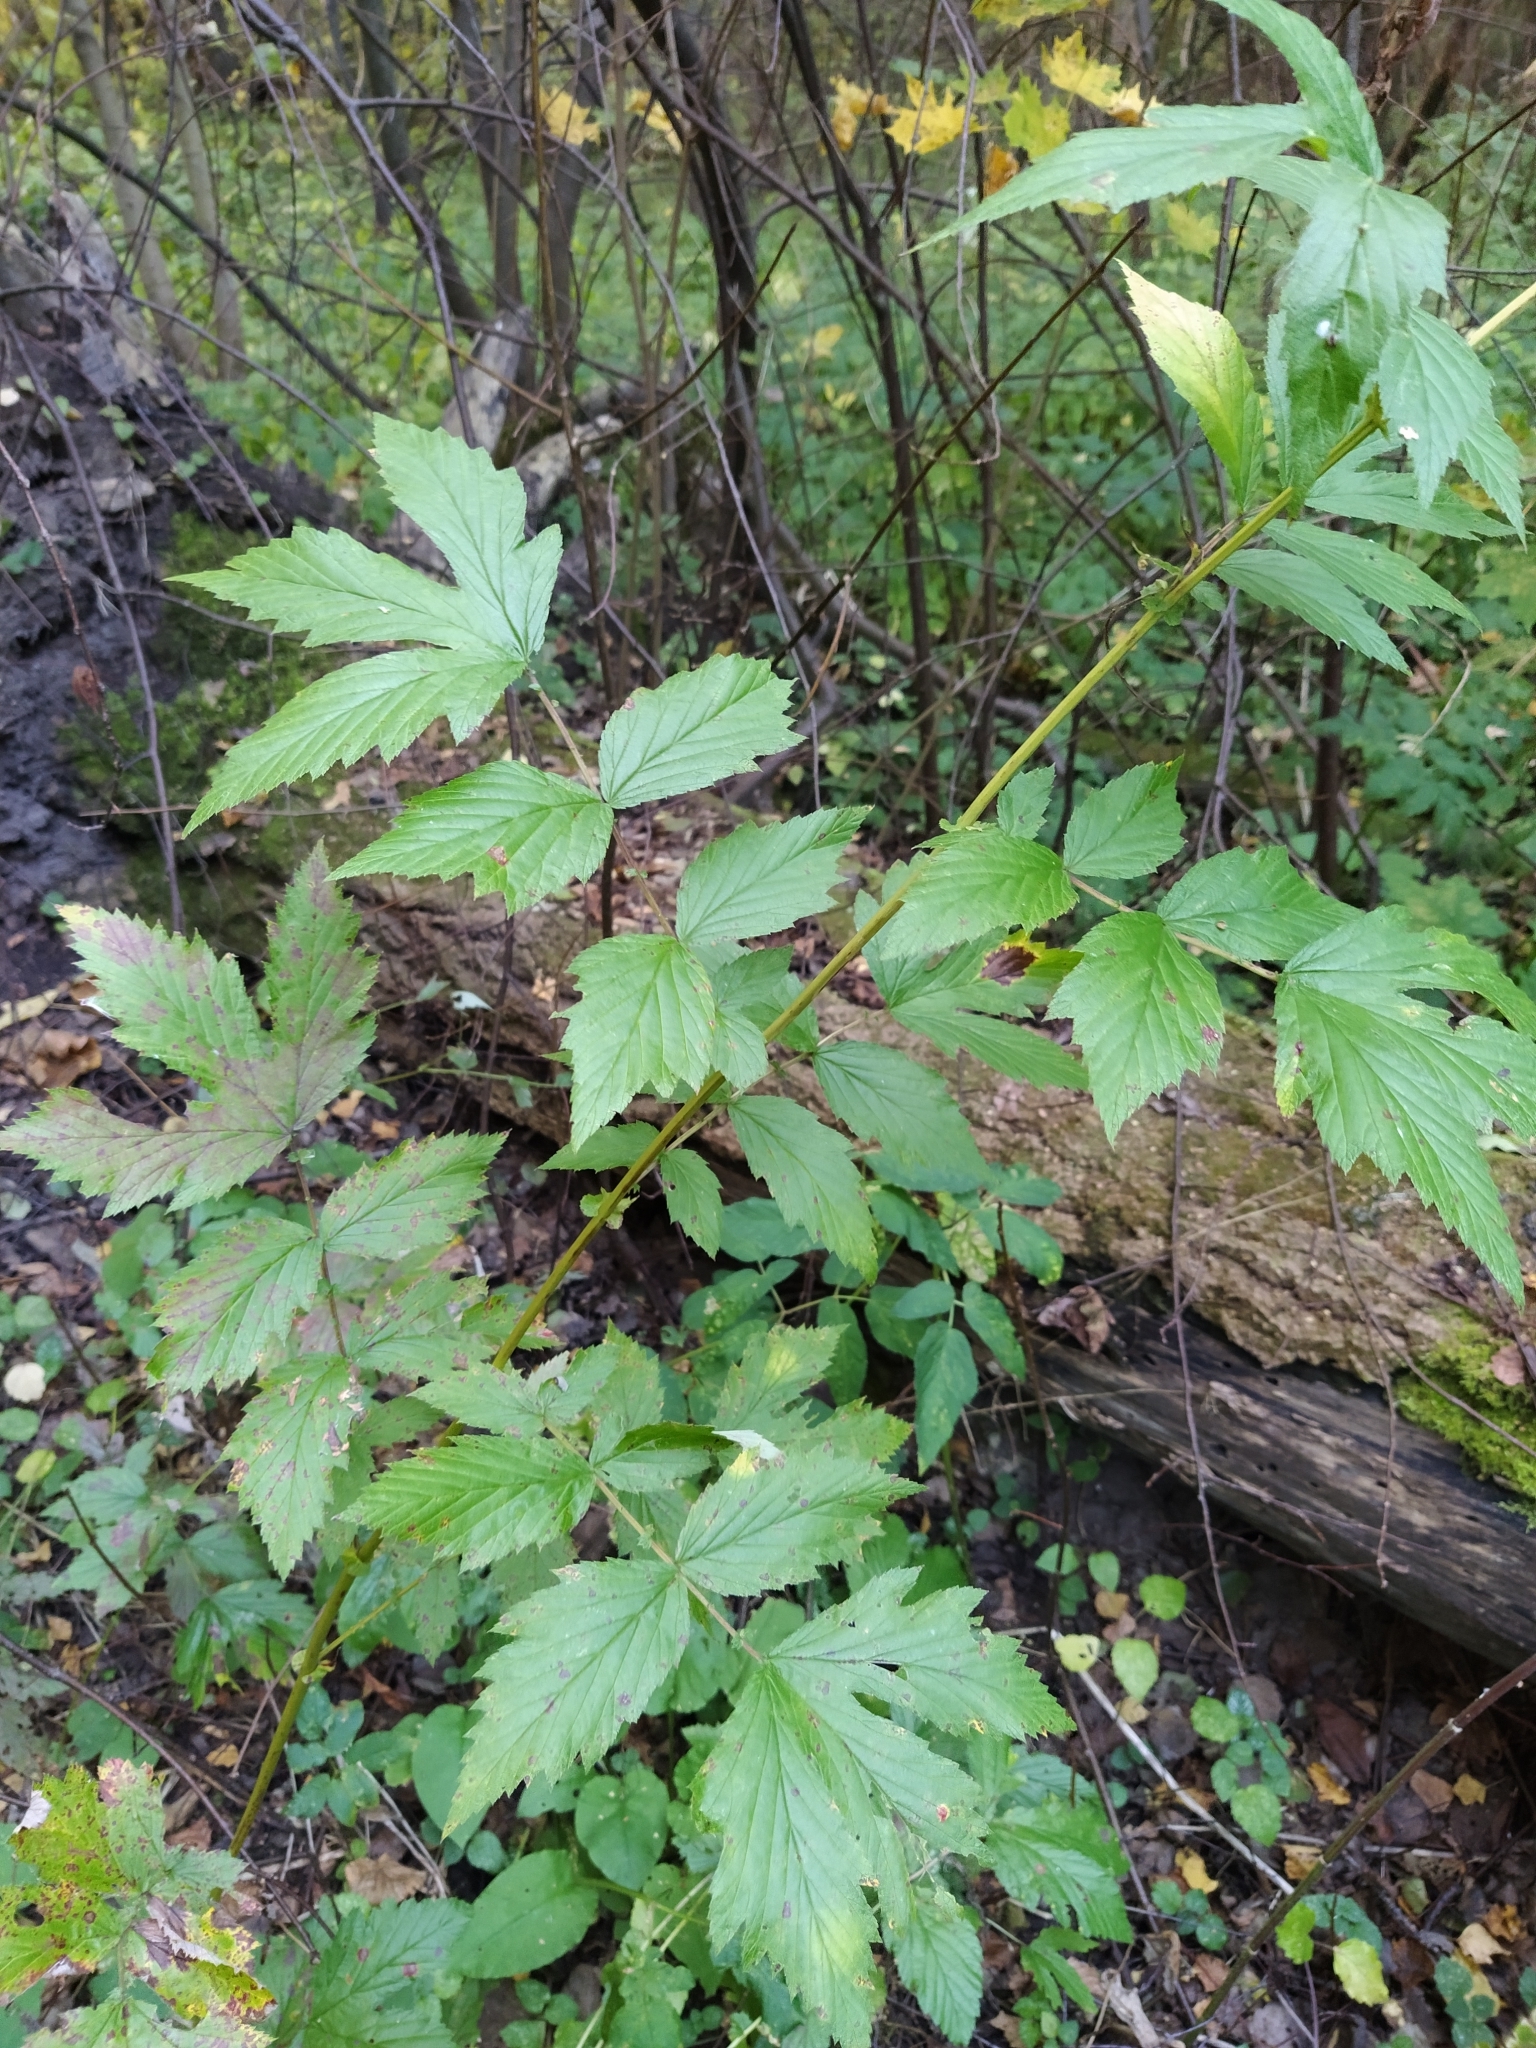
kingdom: Plantae
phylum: Tracheophyta
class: Magnoliopsida
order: Rosales
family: Rosaceae
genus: Filipendula
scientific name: Filipendula ulmaria
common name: Meadowsweet
